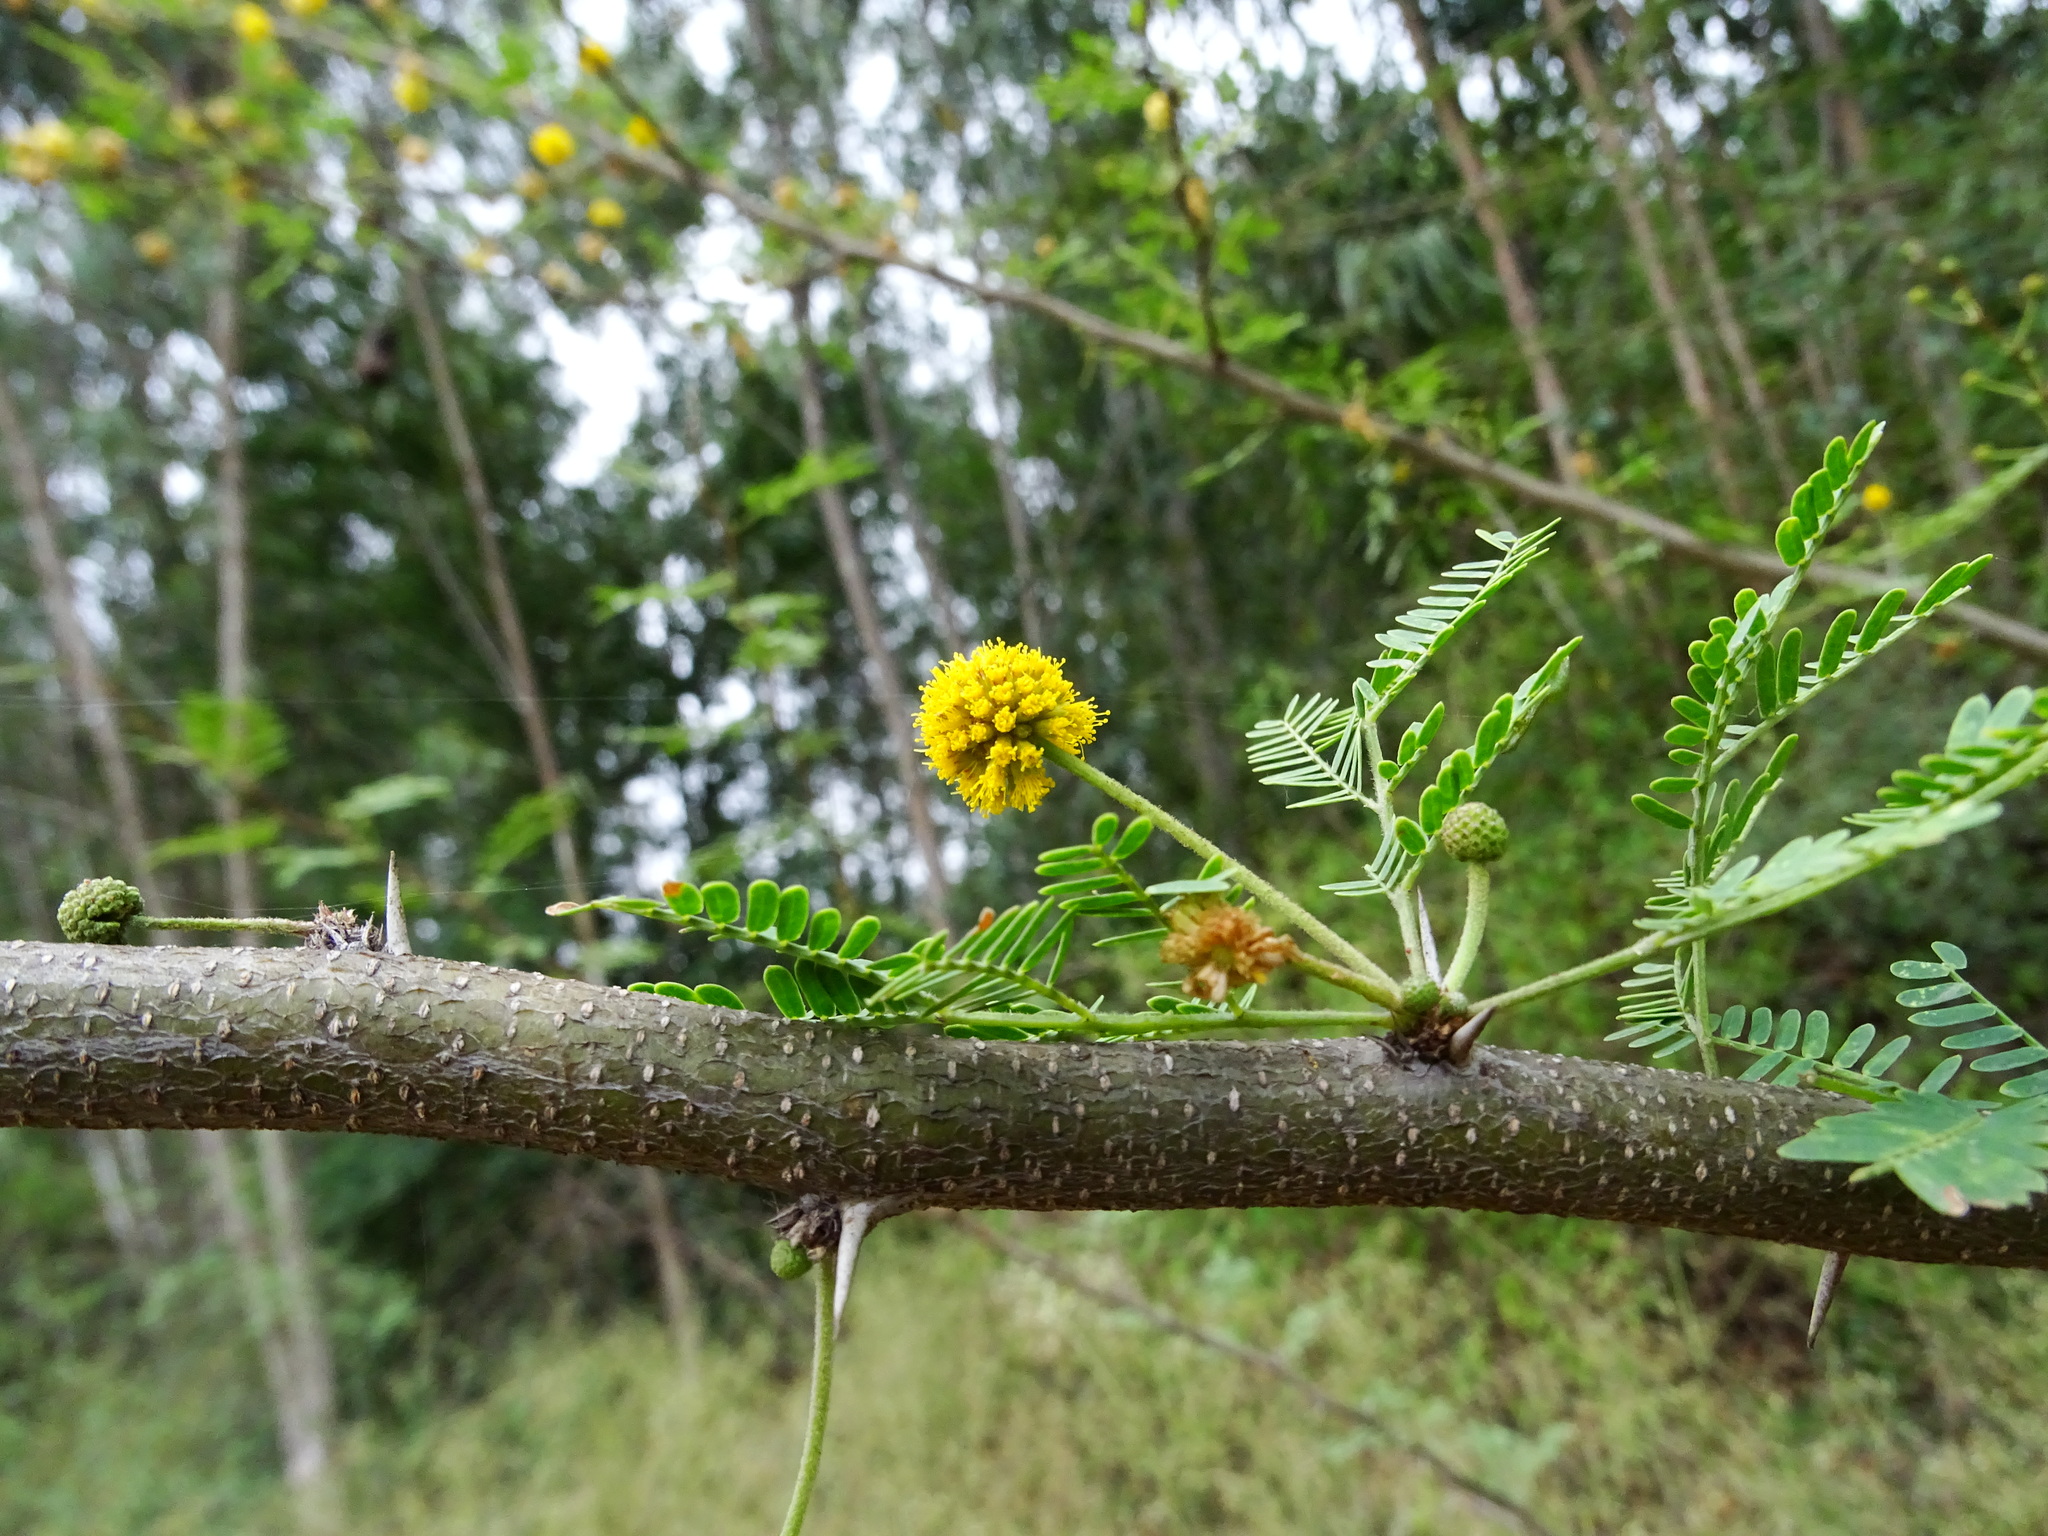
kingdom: Plantae
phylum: Tracheophyta
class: Magnoliopsida
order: Fabales
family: Fabaceae
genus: Vachellia
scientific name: Vachellia farnesiana
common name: Sweet acacia
